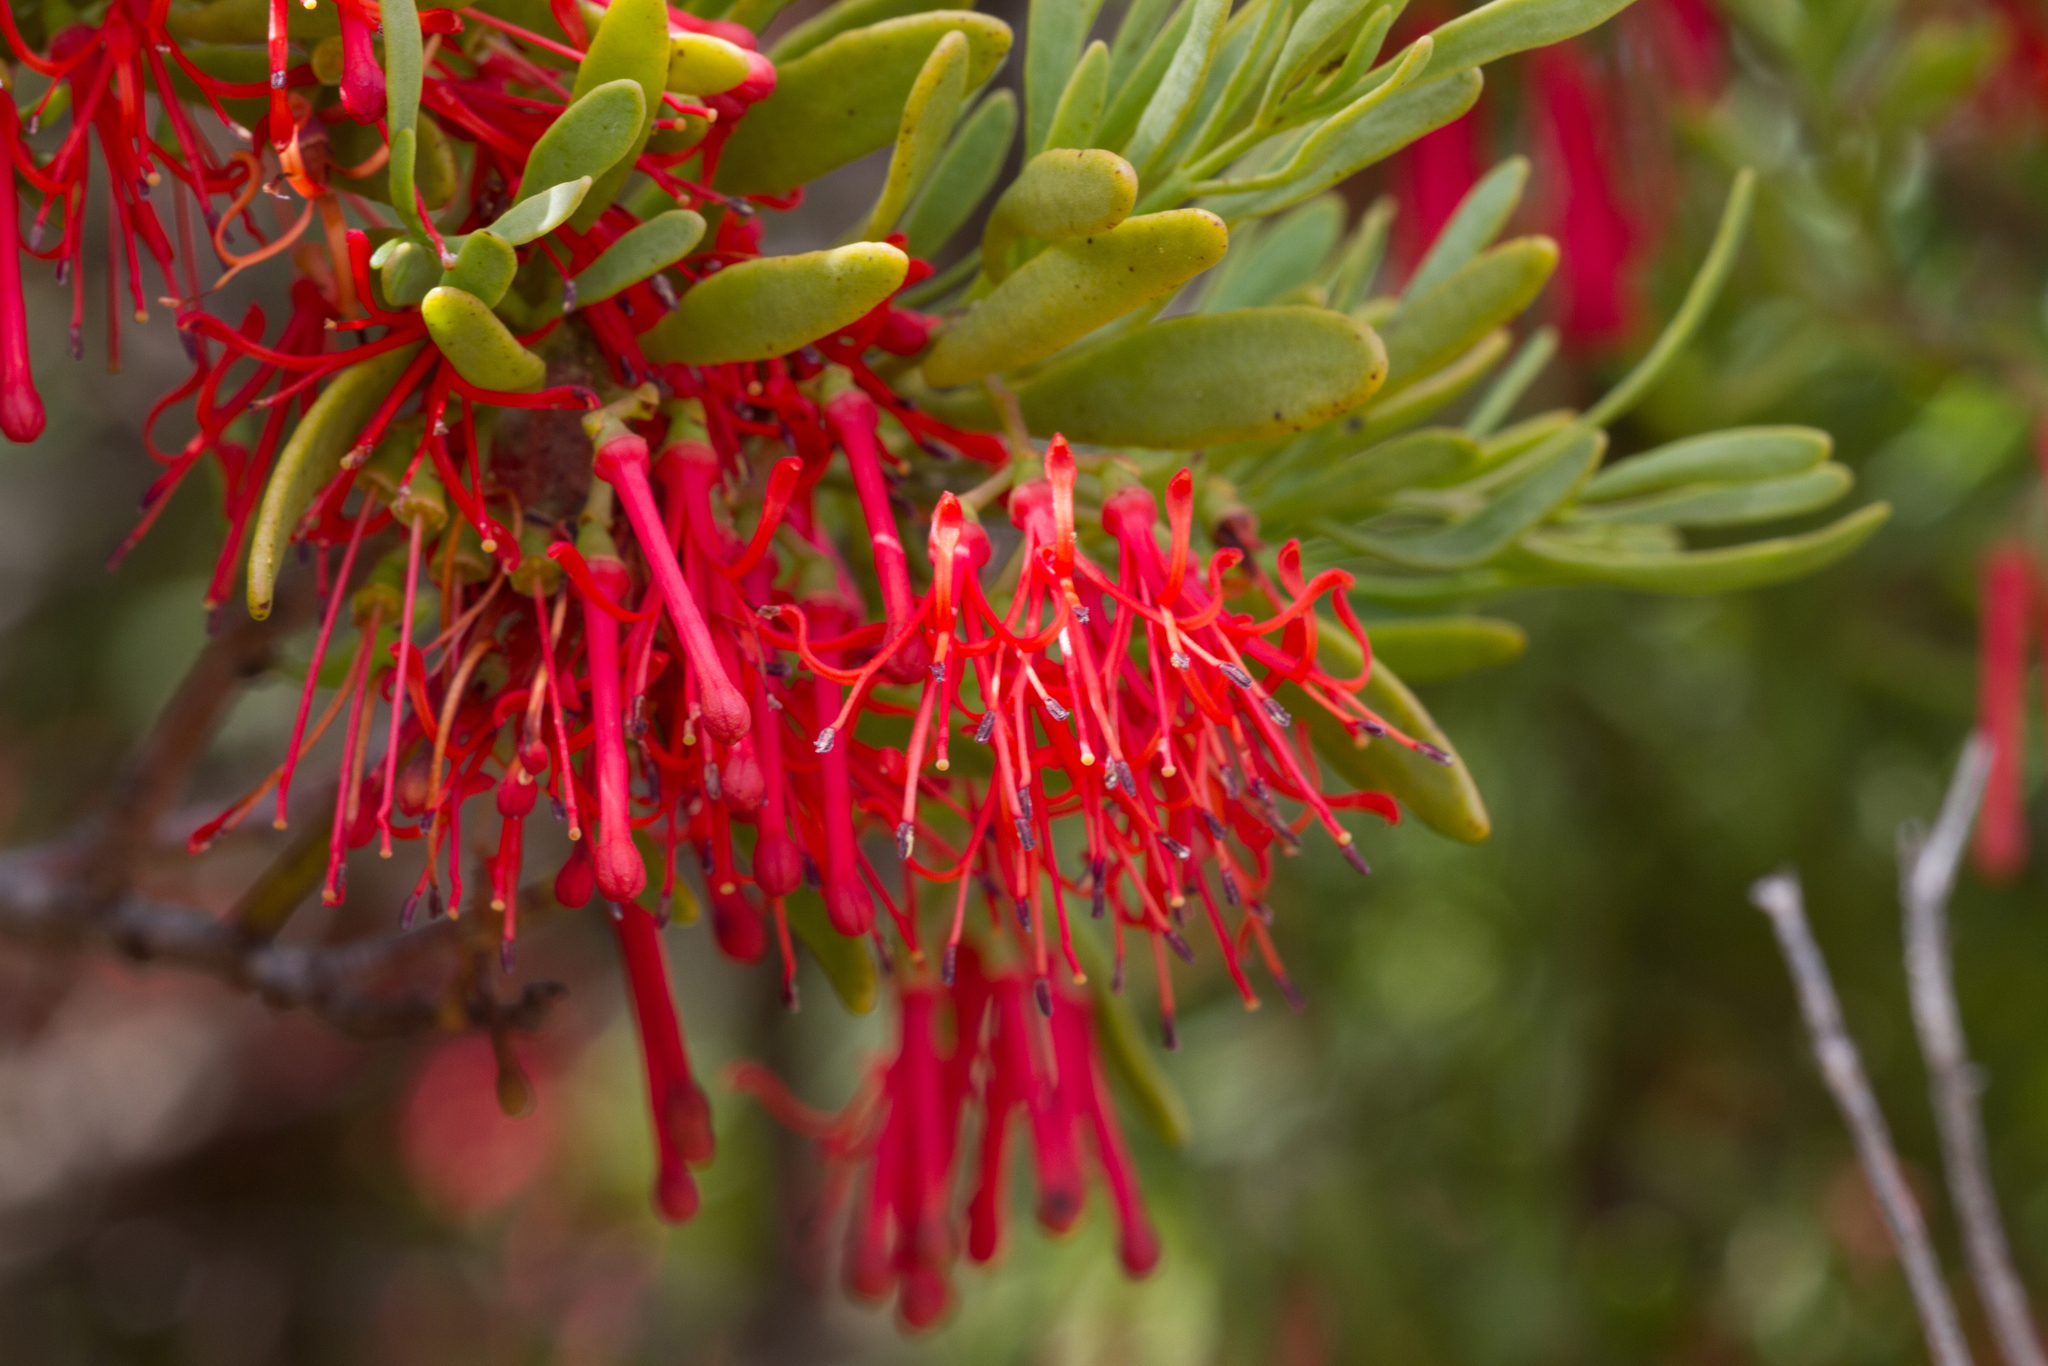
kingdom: Plantae
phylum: Tracheophyta
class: Magnoliopsida
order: Santalales
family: Loranthaceae
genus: Amyema
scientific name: Amyema melaleucae
